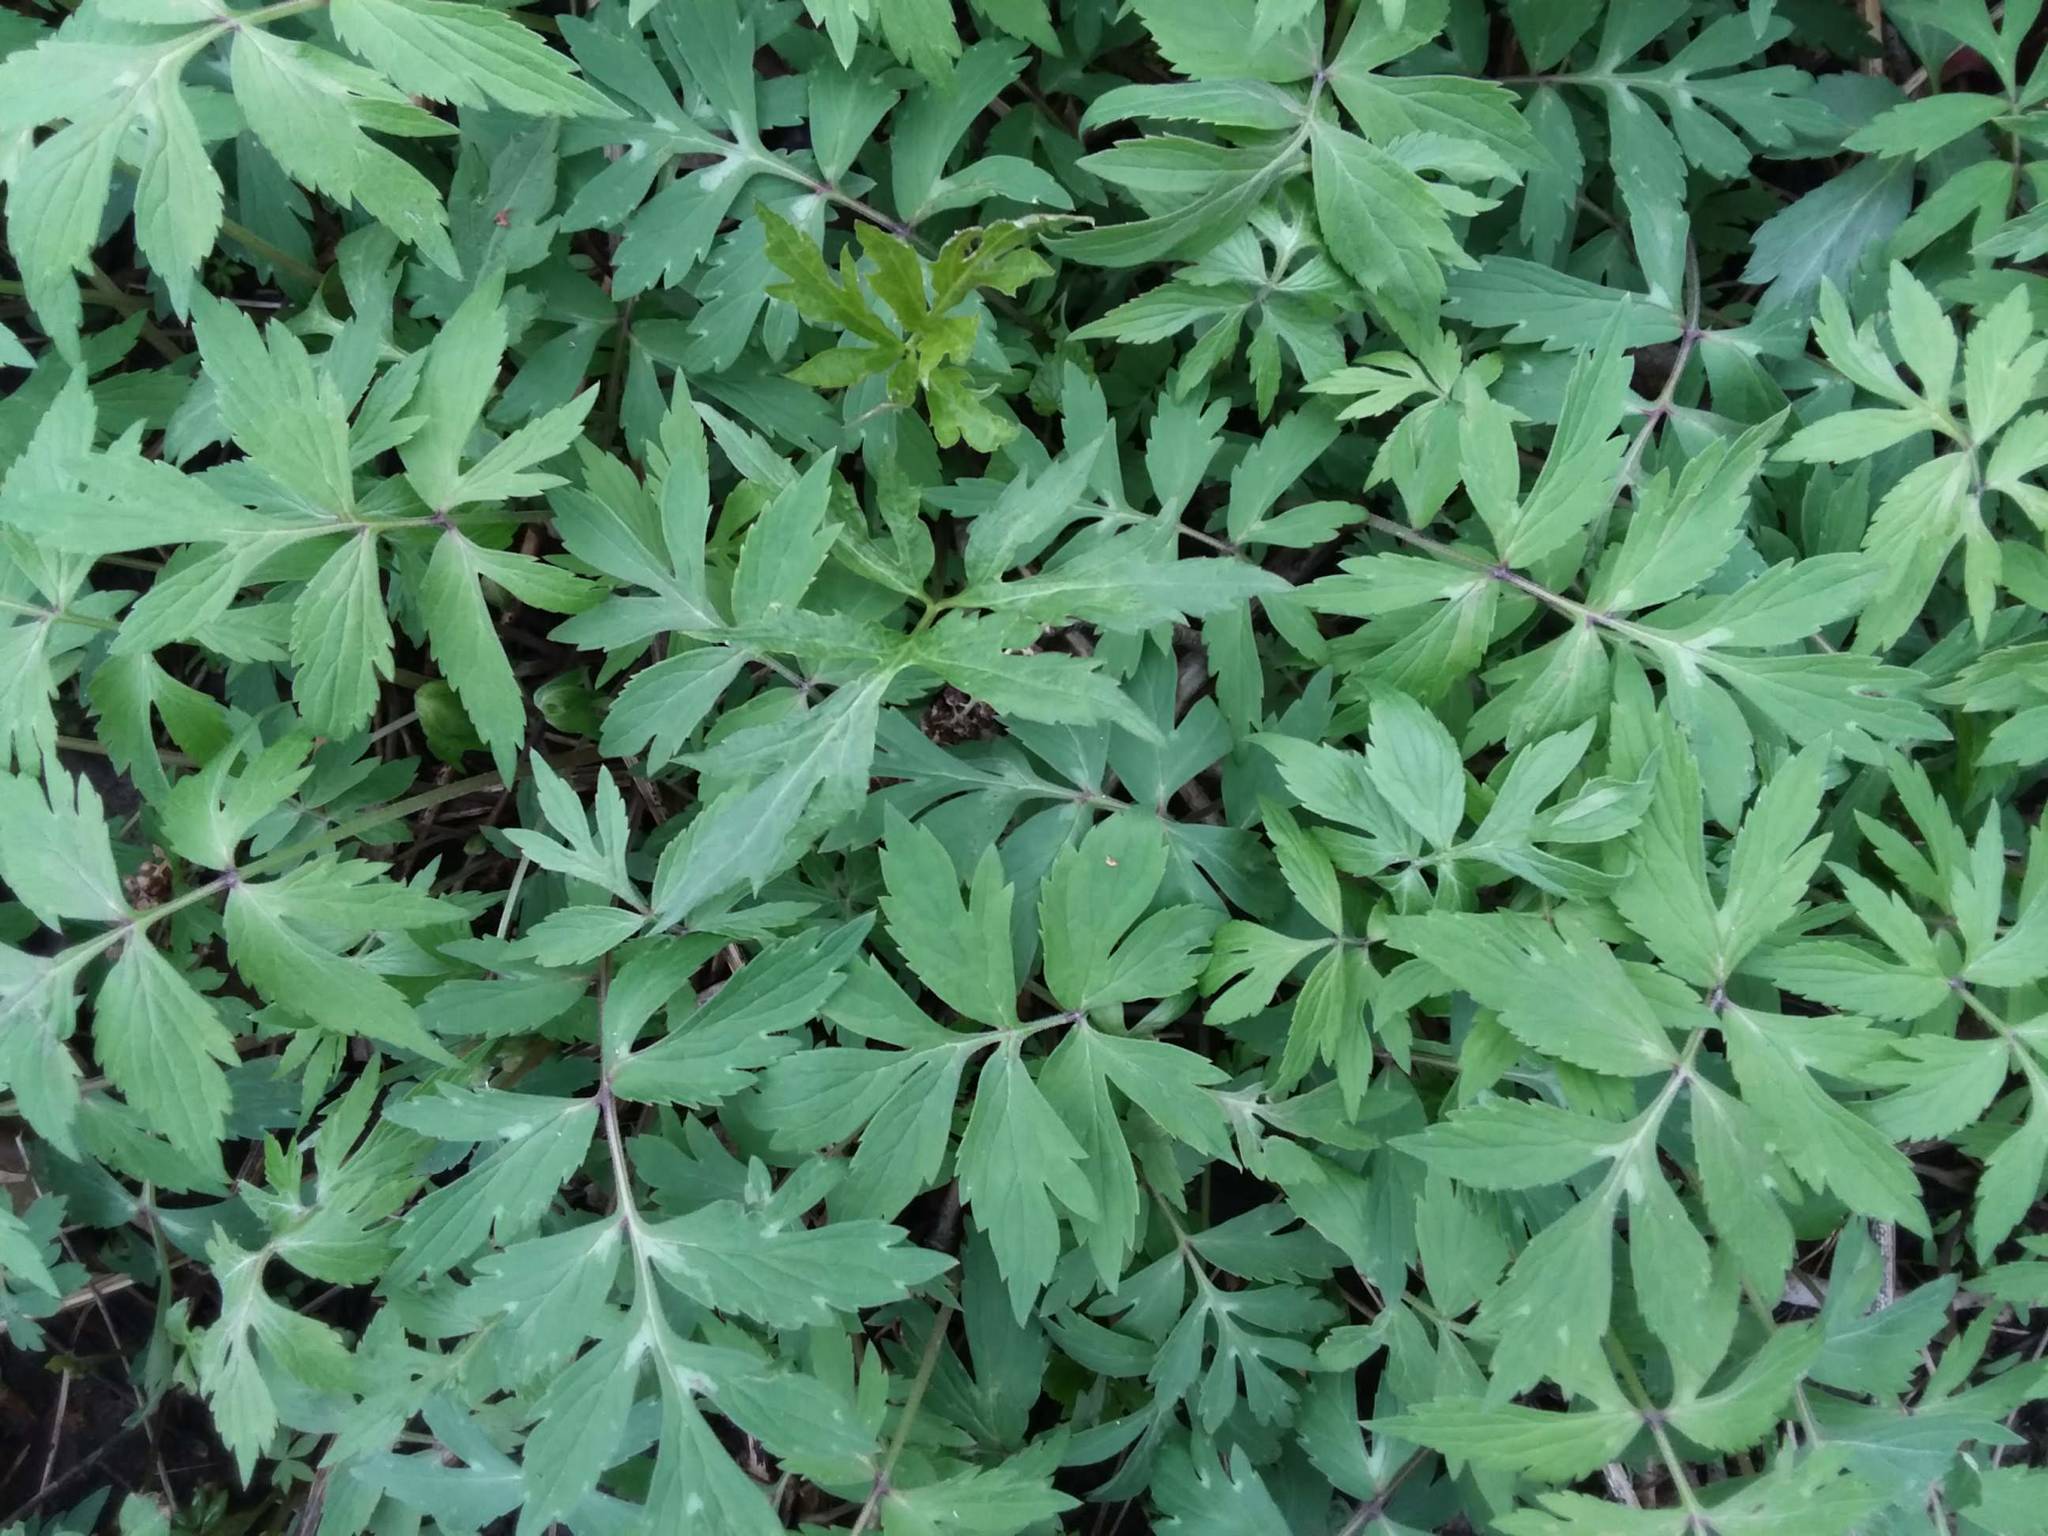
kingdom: Plantae
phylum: Tracheophyta
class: Magnoliopsida
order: Boraginales
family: Hydrophyllaceae
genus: Hydrophyllum
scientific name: Hydrophyllum virginianum
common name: Virginia waterleaf
